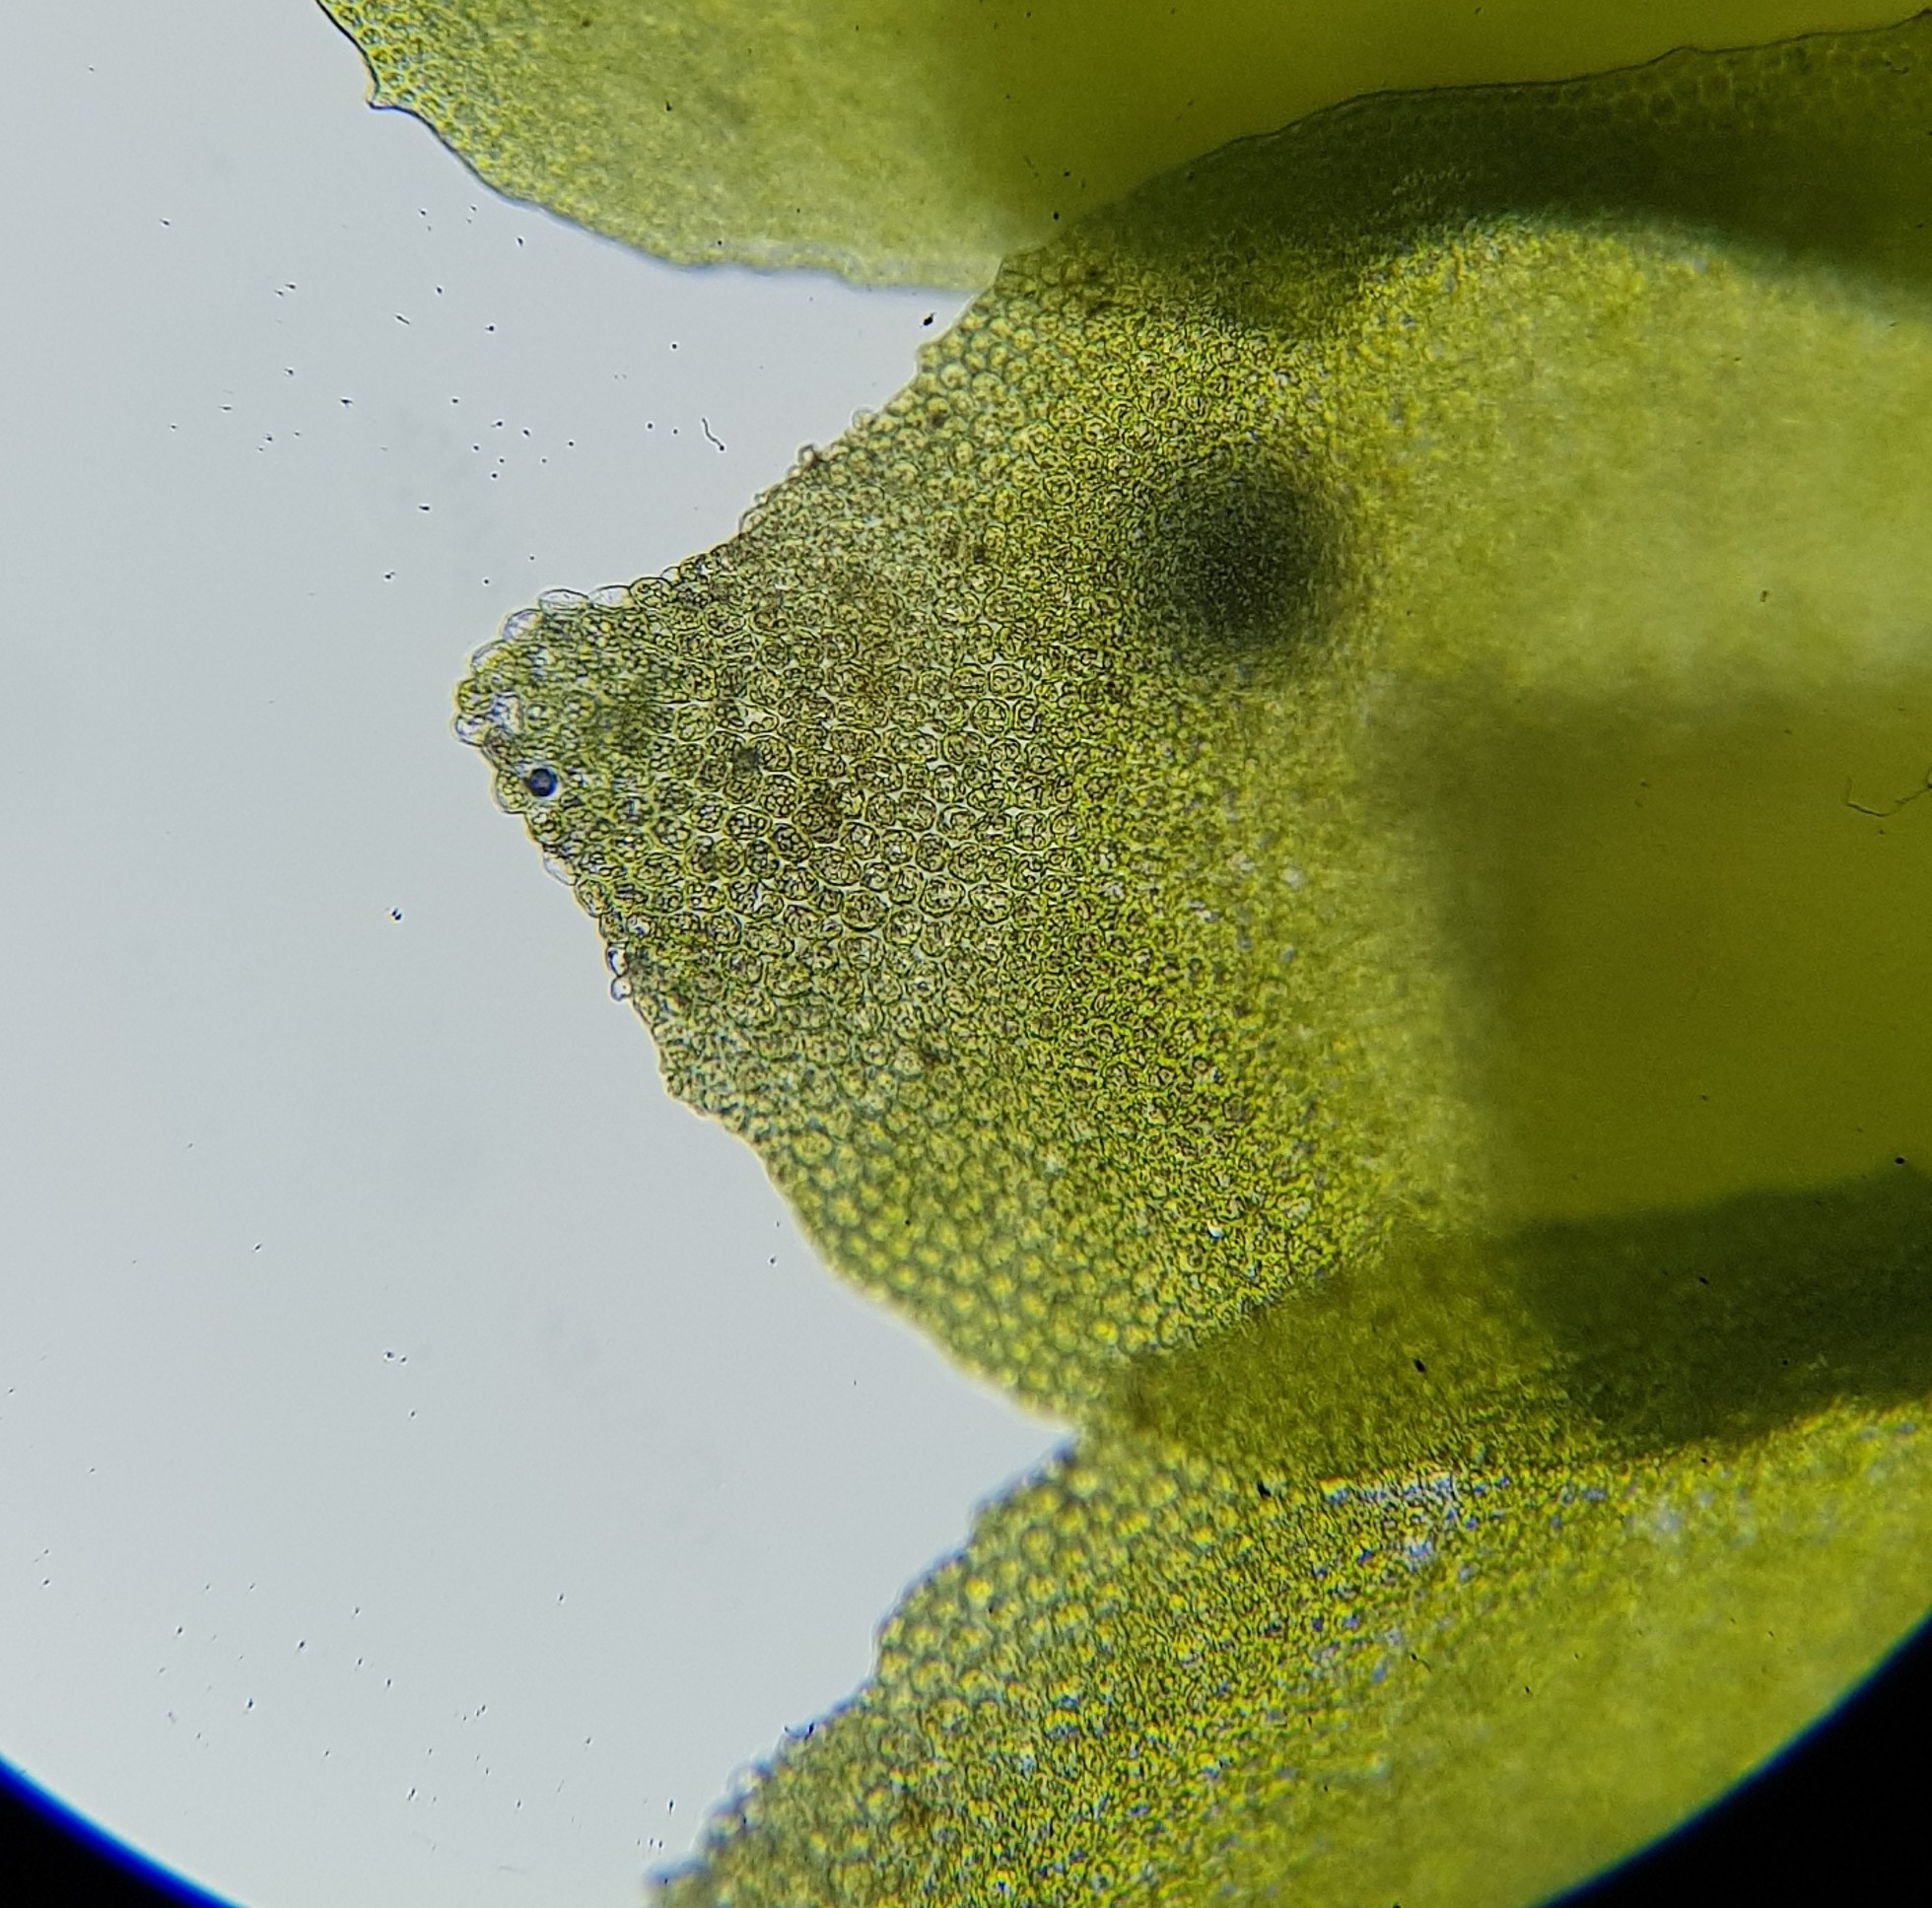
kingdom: Plantae
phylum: Marchantiophyta
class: Jungermanniopsida
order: Jungermanniales
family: Scapaniaceae
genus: Scapania
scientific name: Scapania aspera
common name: Rough earwort
